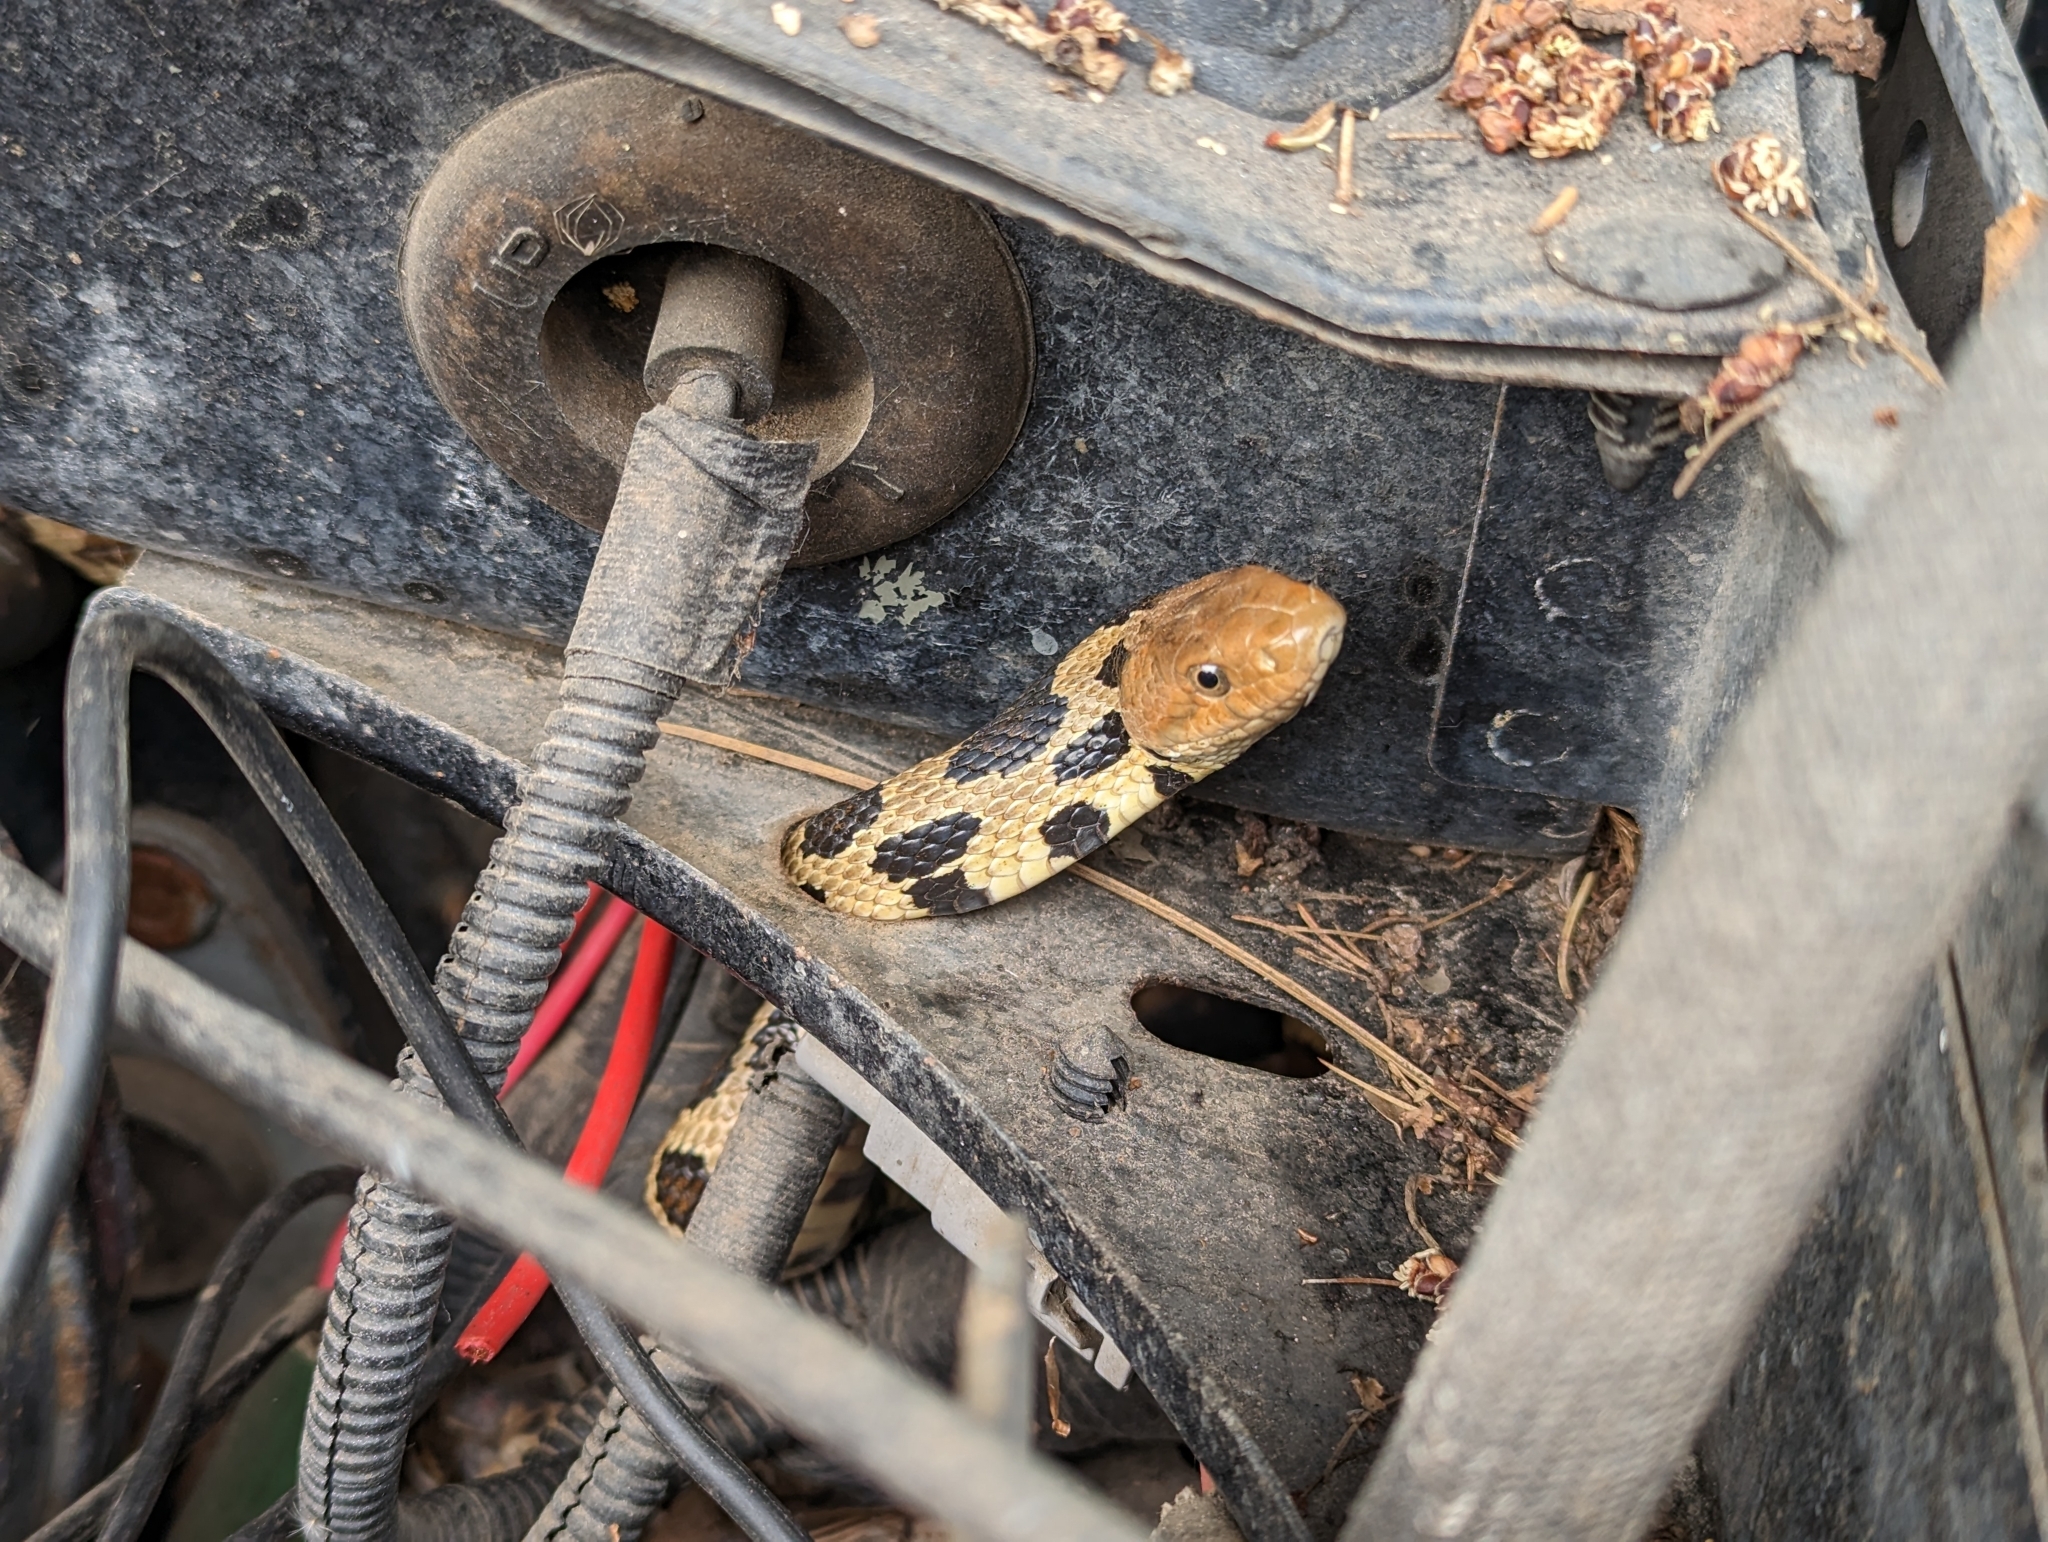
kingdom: Animalia
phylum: Chordata
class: Squamata
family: Colubridae
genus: Pantherophis
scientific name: Pantherophis vulpinus
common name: Eastern fox snake
